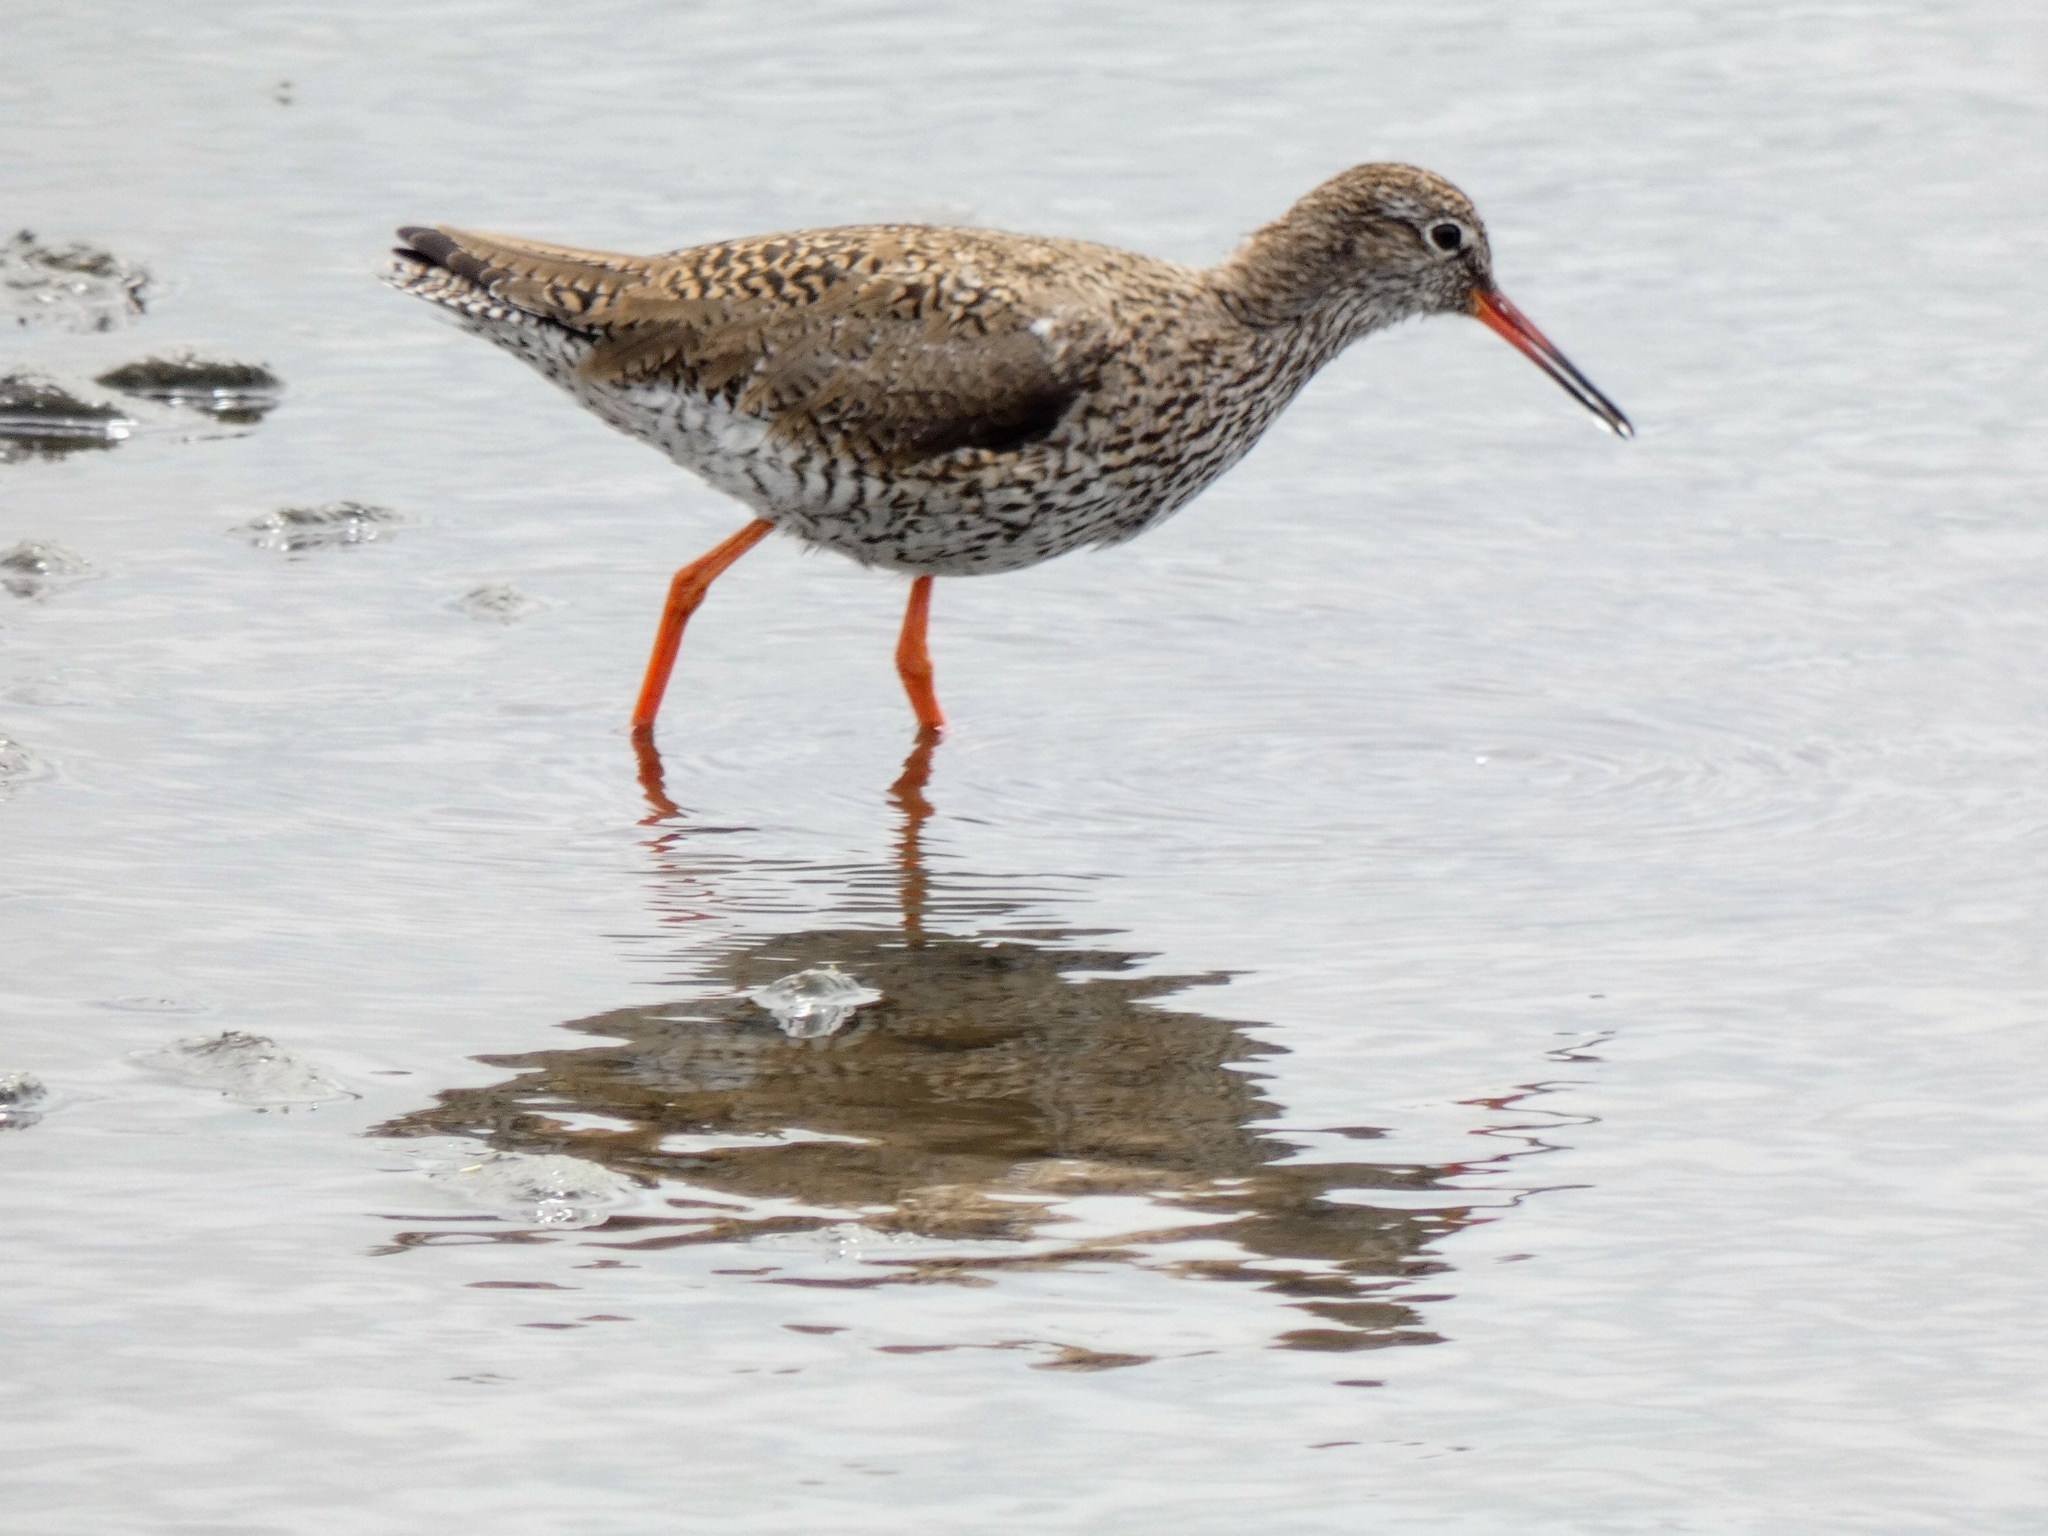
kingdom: Animalia
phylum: Chordata
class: Aves
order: Charadriiformes
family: Scolopacidae
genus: Tringa
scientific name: Tringa totanus
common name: Common redshank
